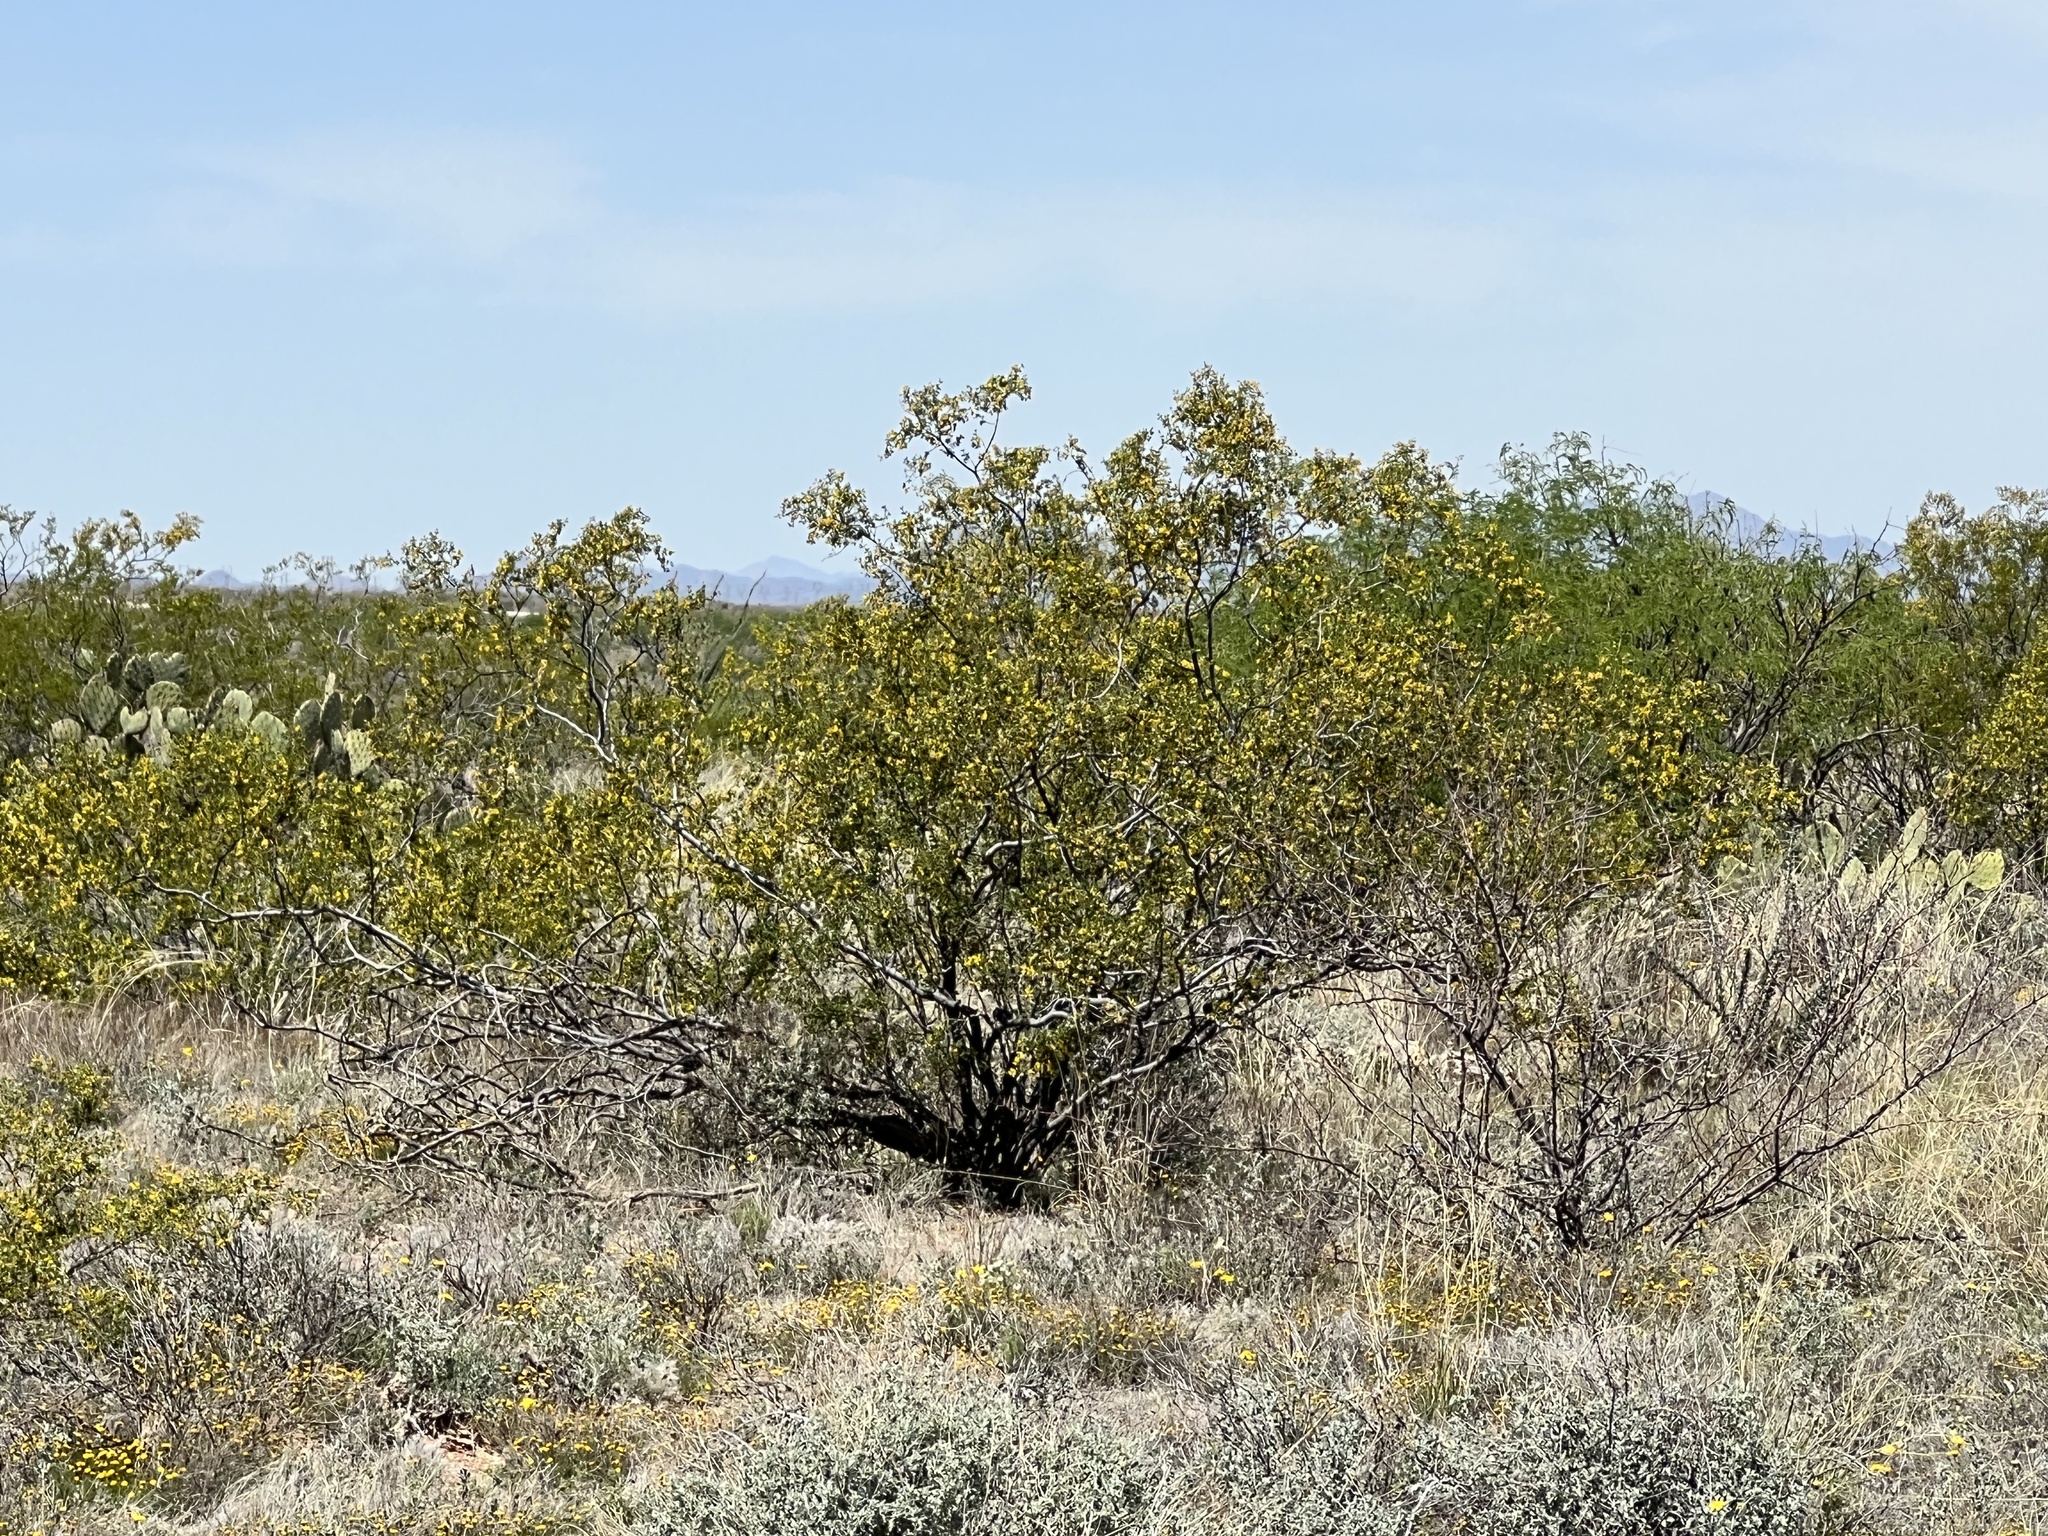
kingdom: Plantae
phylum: Tracheophyta
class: Magnoliopsida
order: Zygophyllales
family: Zygophyllaceae
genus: Larrea
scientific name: Larrea tridentata
